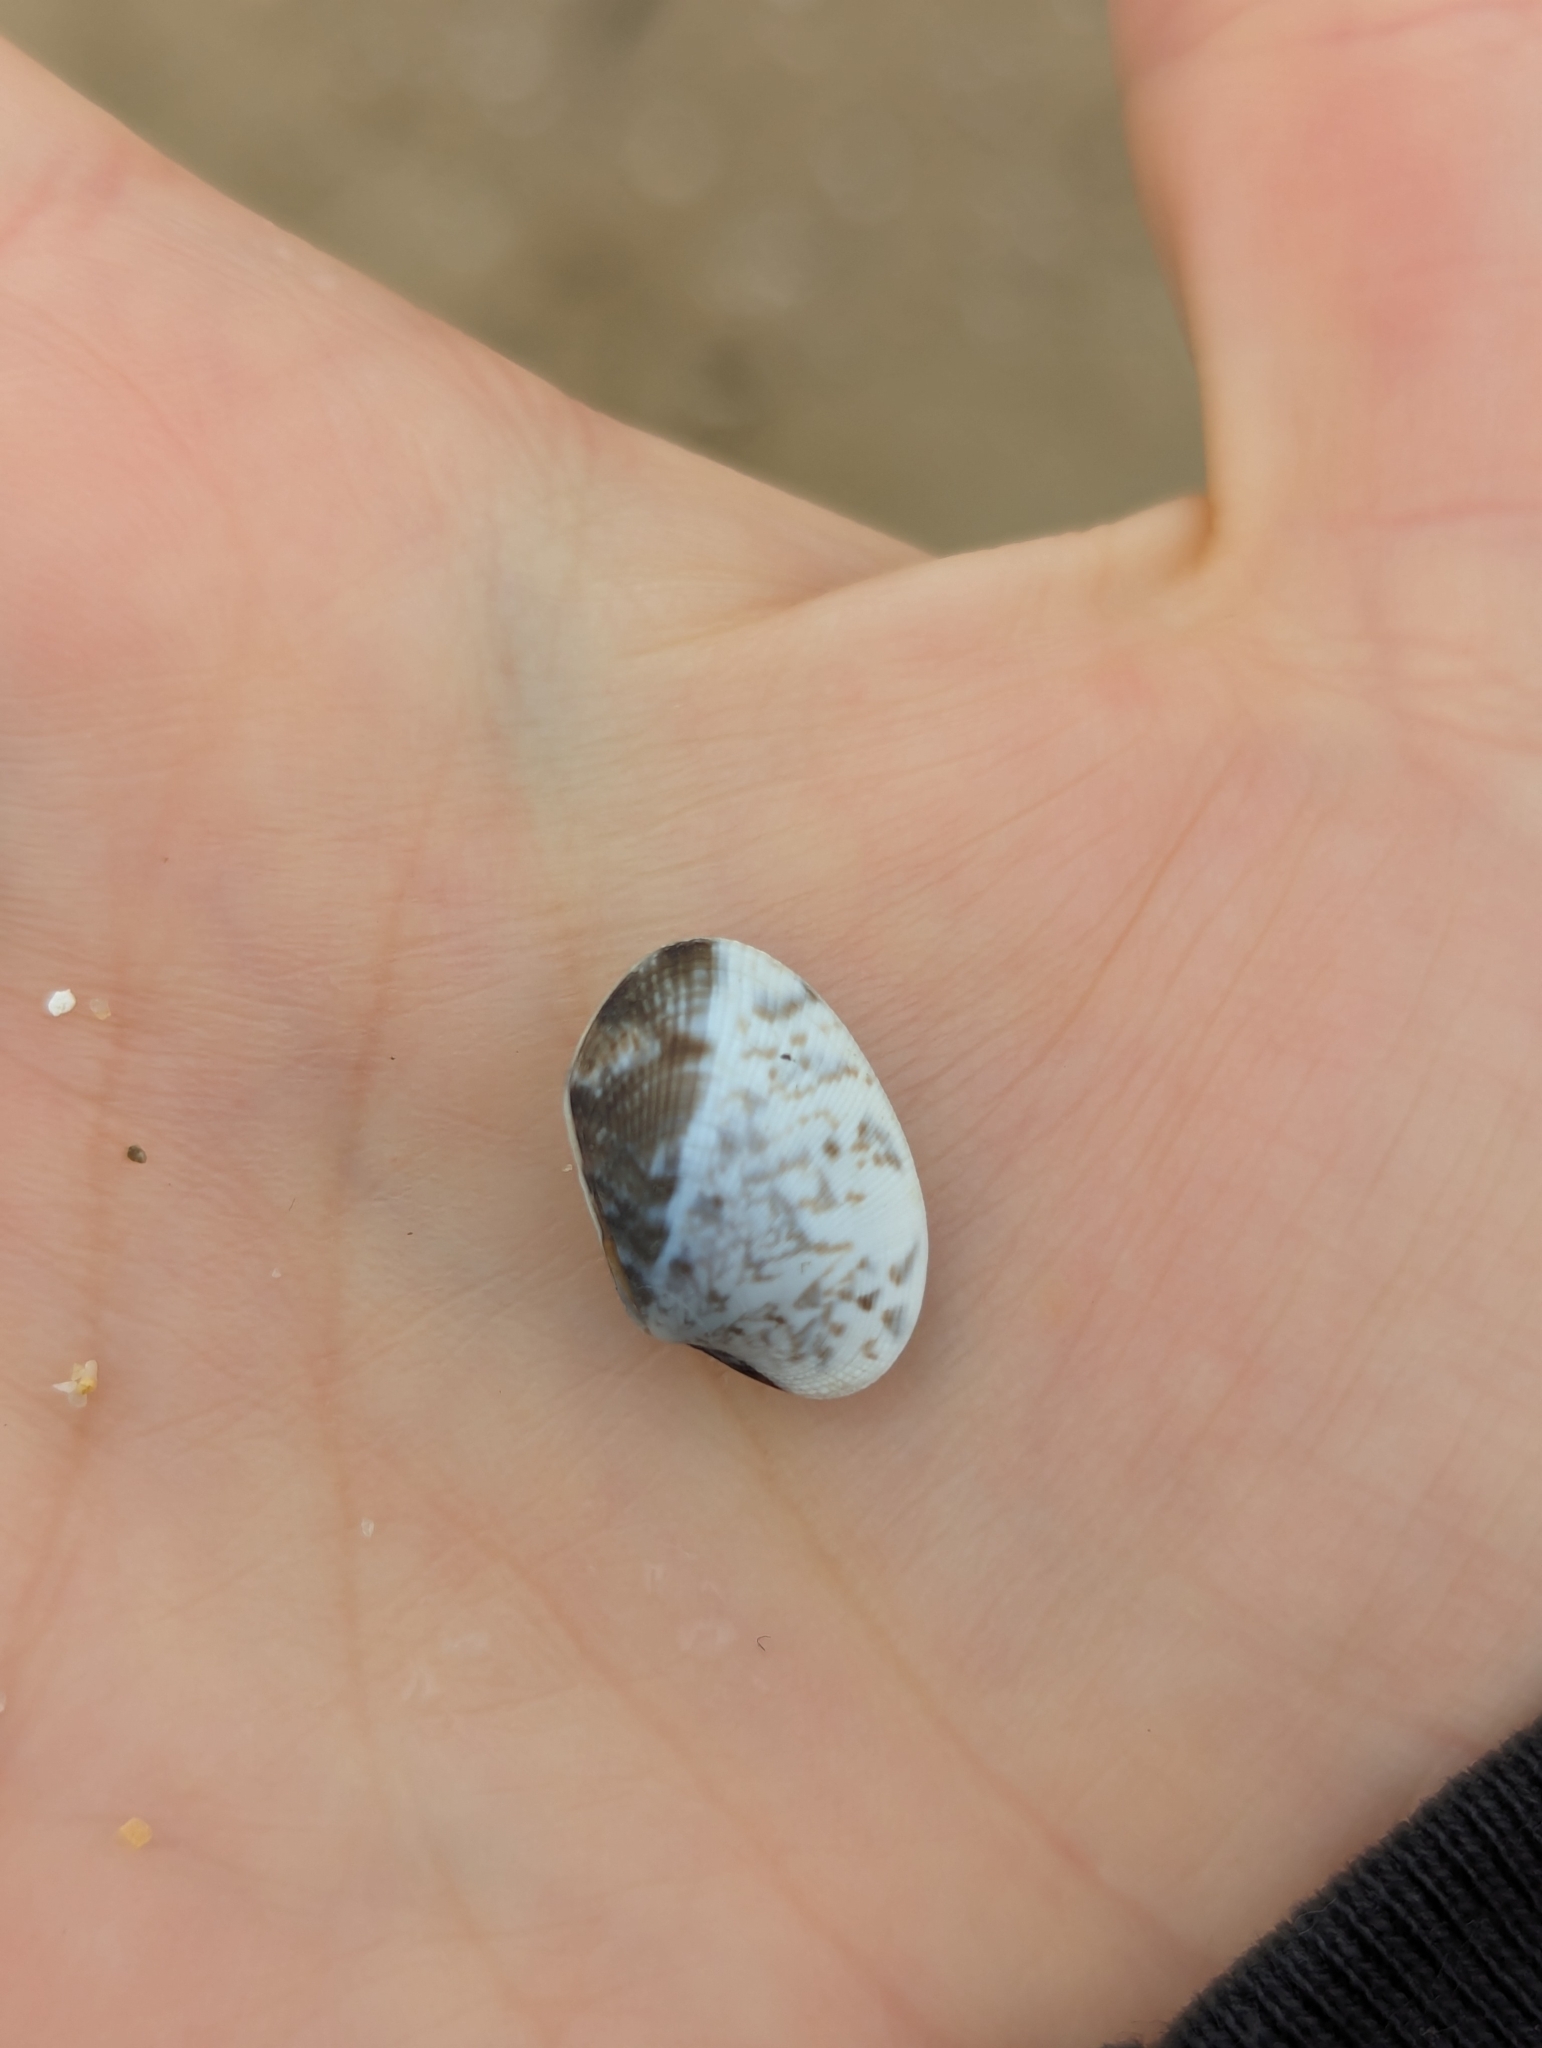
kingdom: Animalia
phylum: Mollusca
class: Bivalvia
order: Venerida
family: Veneridae
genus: Ruditapes
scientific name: Ruditapes philippinarum
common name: Manila clam
